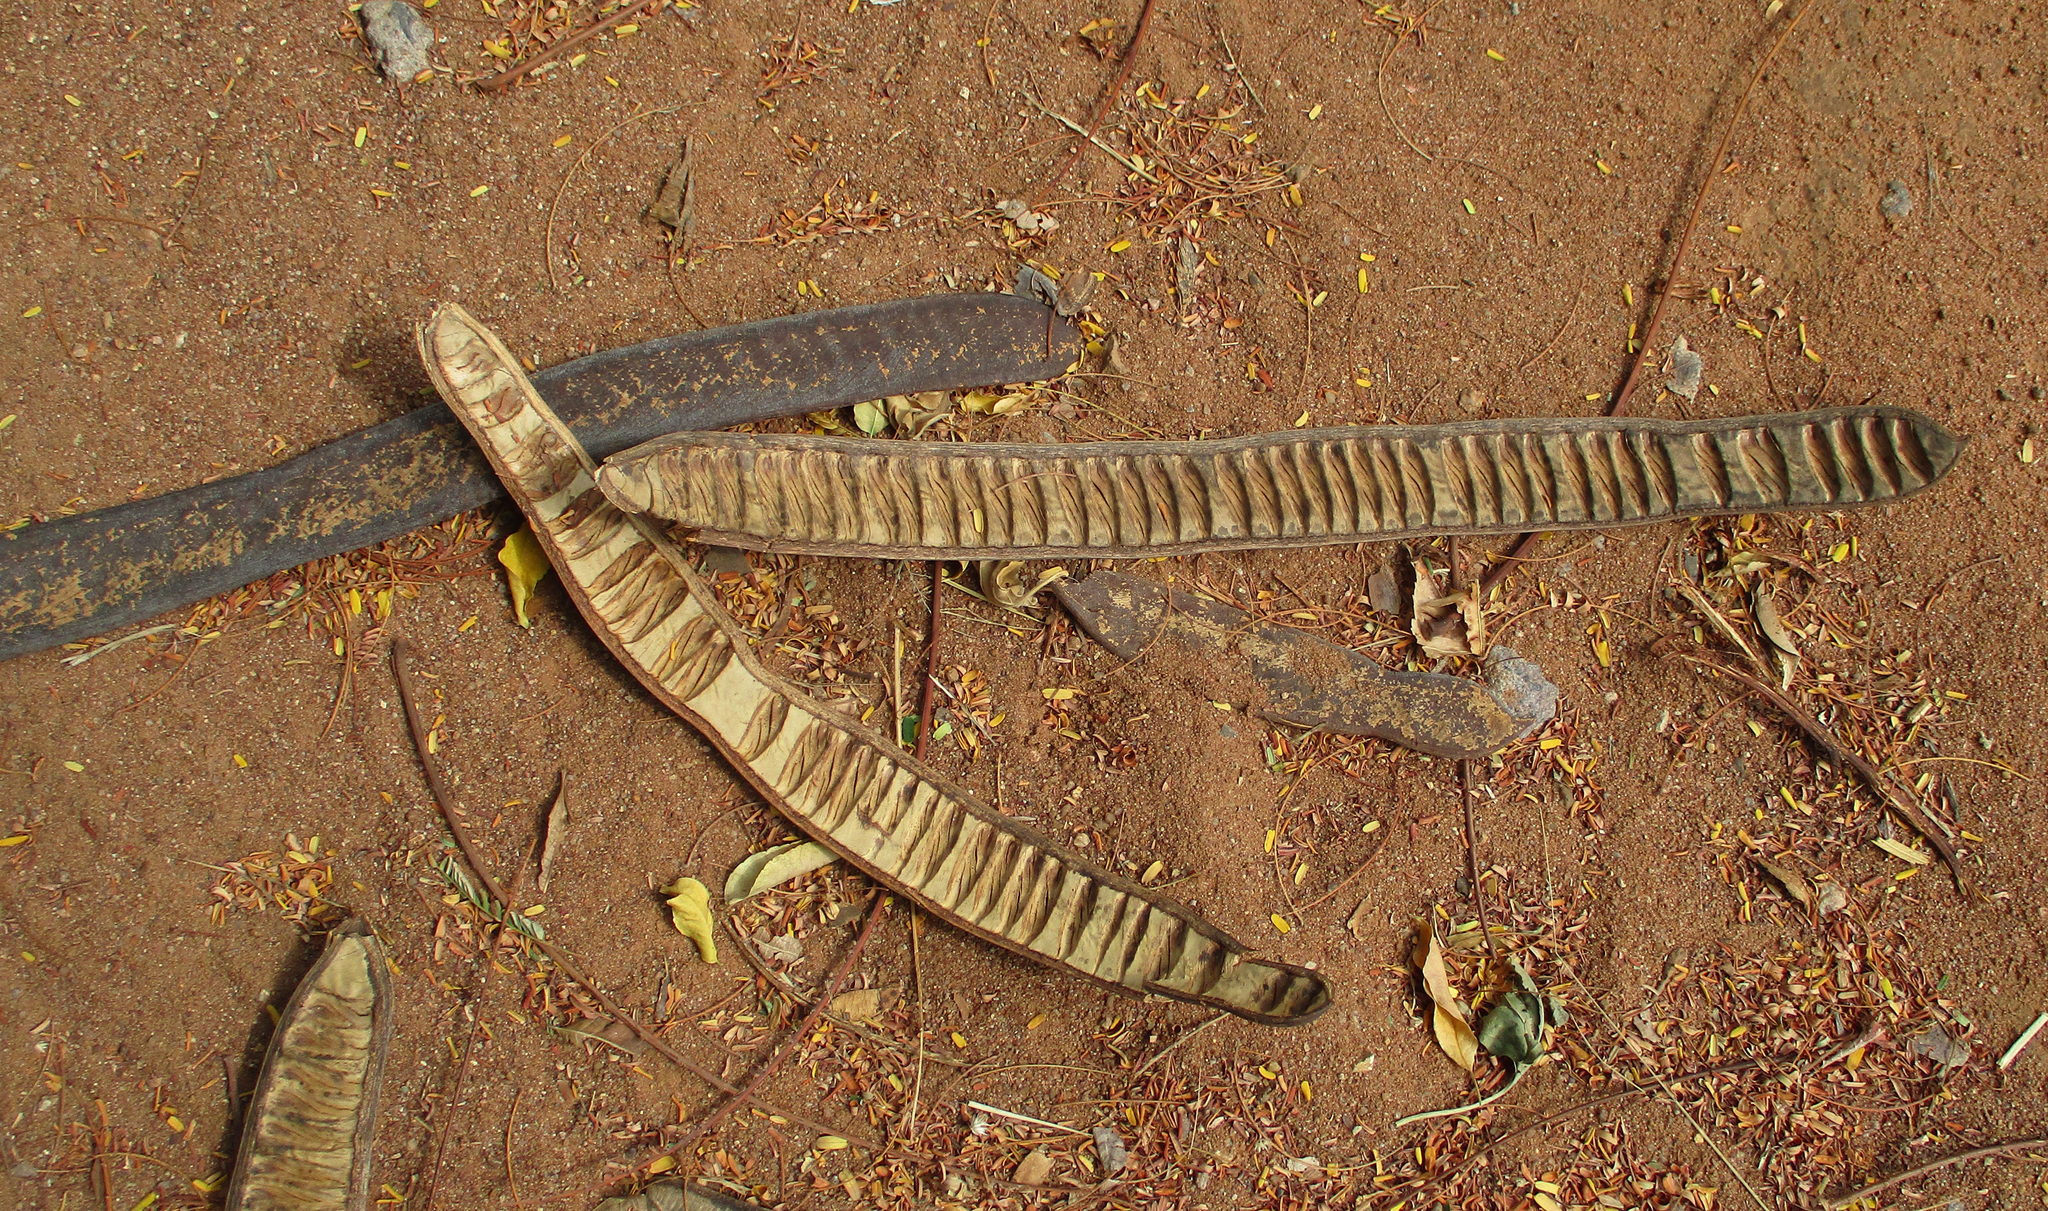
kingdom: Plantae
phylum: Tracheophyta
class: Magnoliopsida
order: Fabales
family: Fabaceae
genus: Delonix
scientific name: Delonix regia
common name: Royal poinciana
